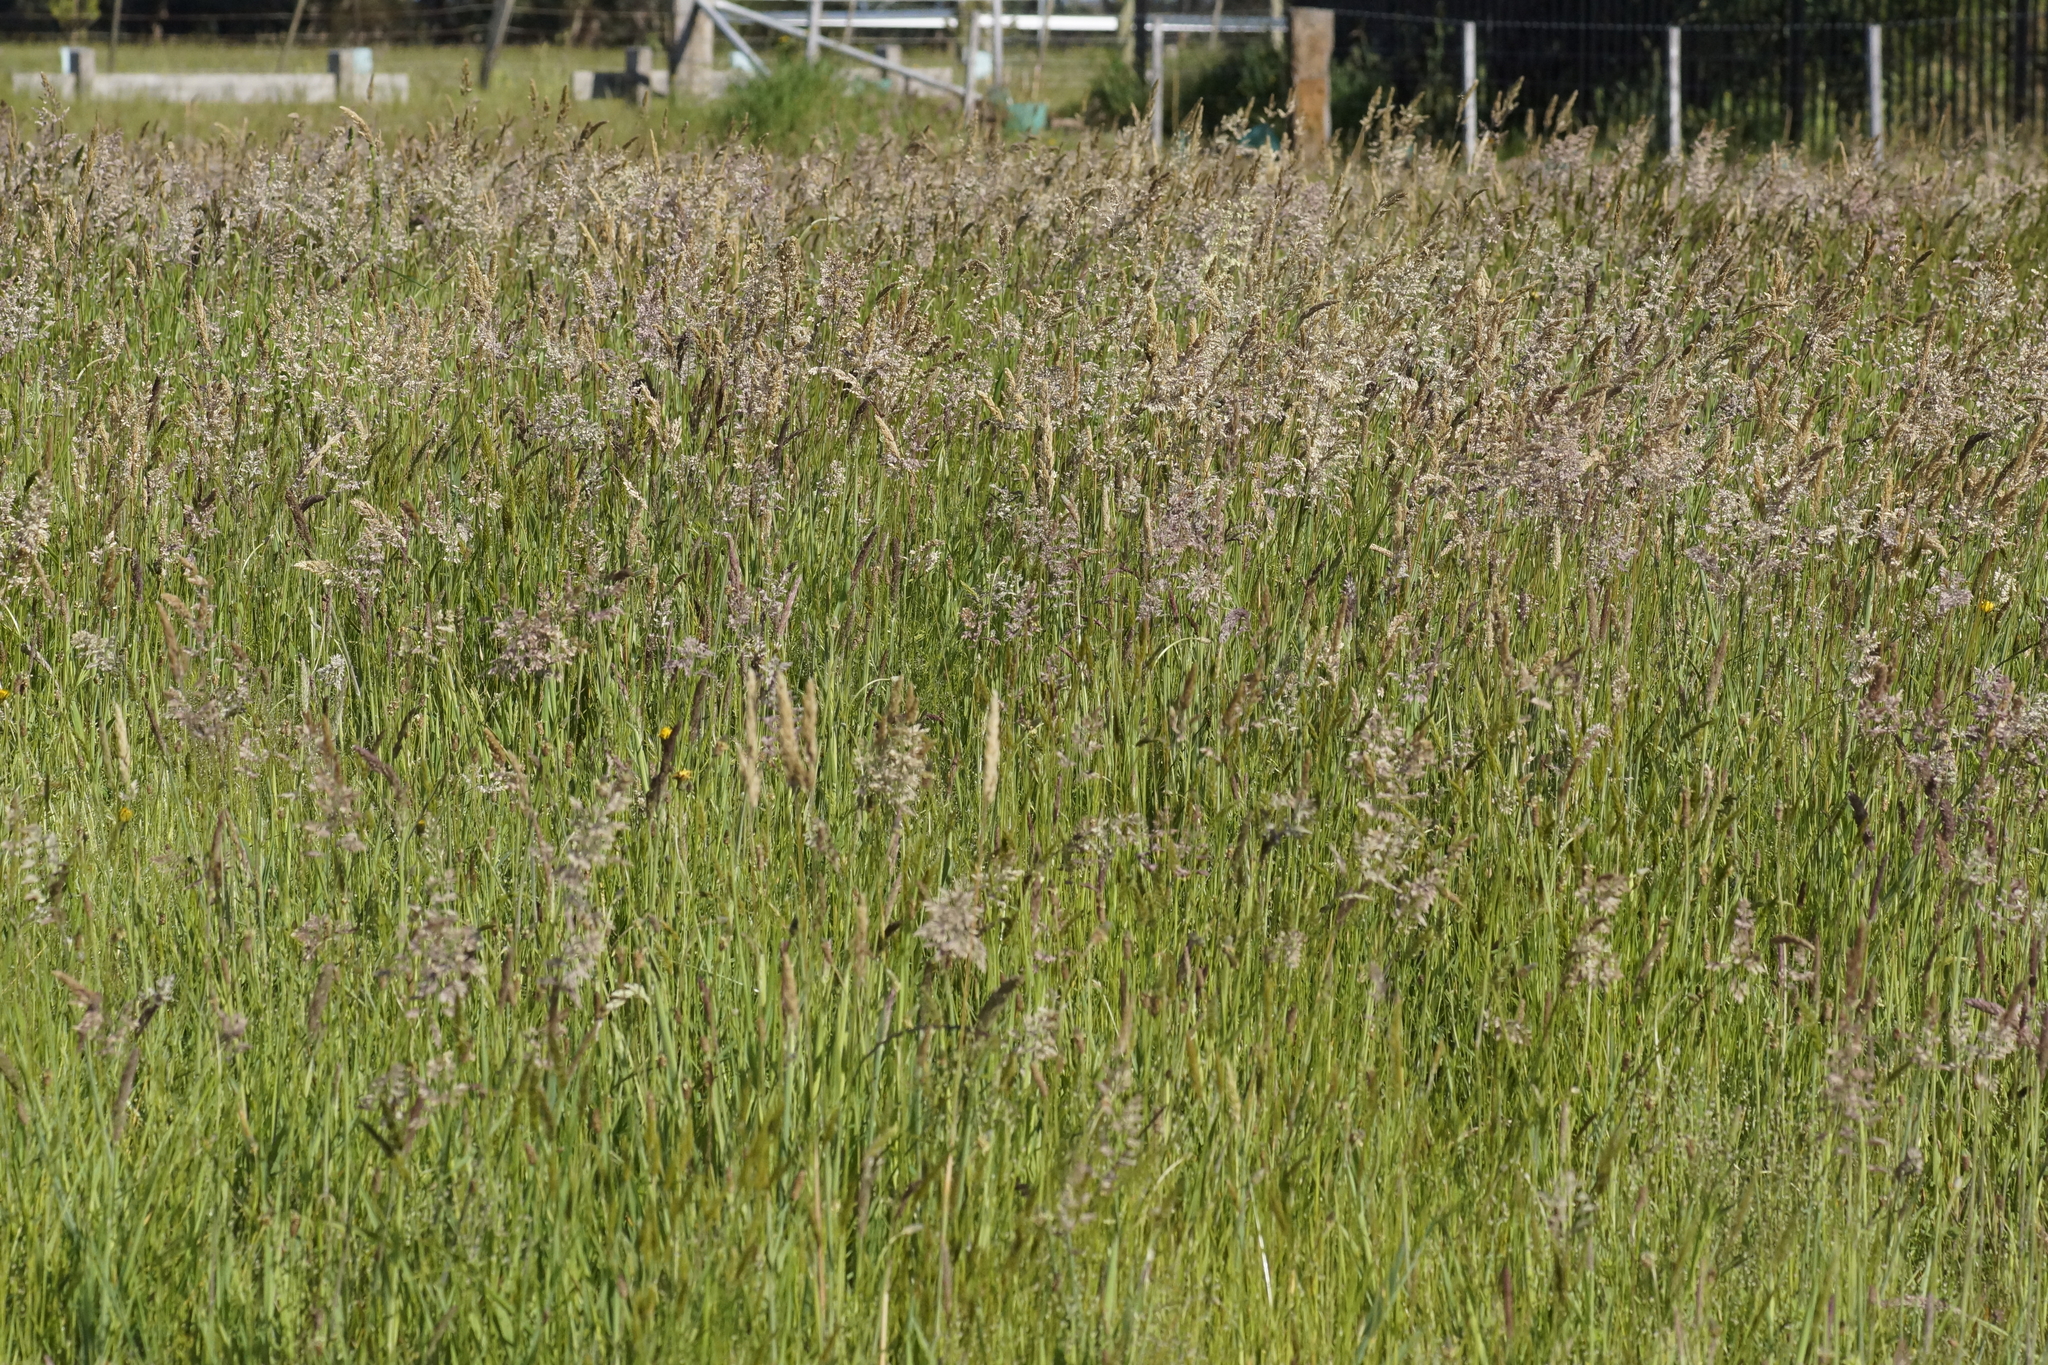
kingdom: Plantae
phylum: Tracheophyta
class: Liliopsida
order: Poales
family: Poaceae
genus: Holcus
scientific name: Holcus lanatus
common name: Yorkshire-fog
